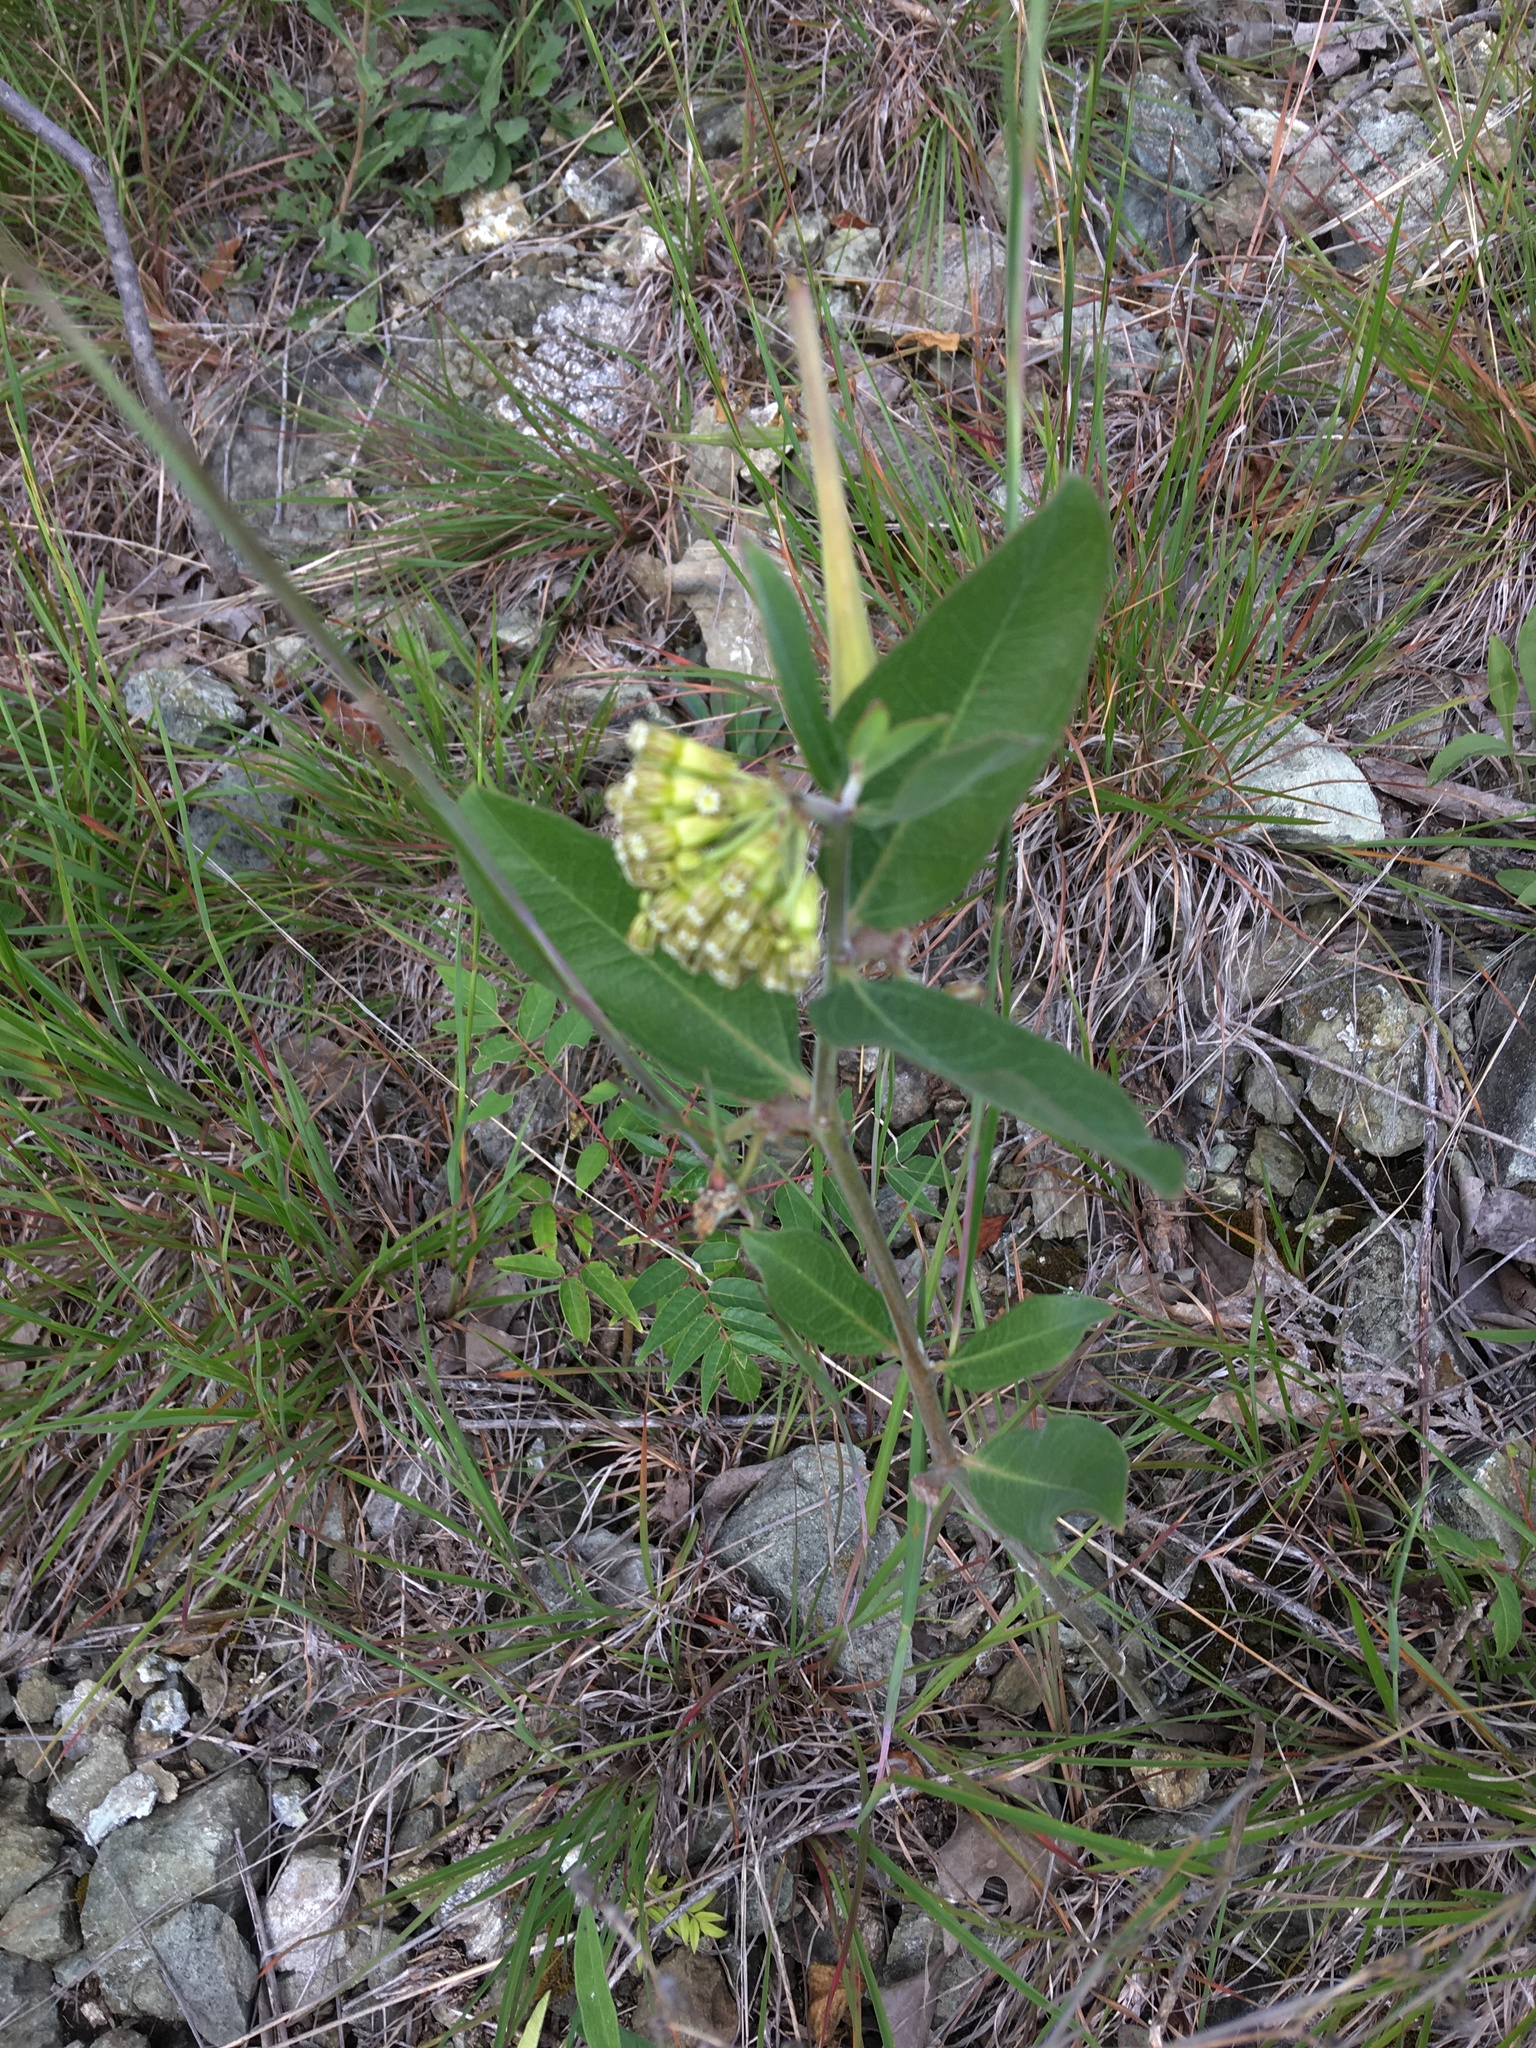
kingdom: Plantae
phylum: Tracheophyta
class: Magnoliopsida
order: Gentianales
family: Apocynaceae
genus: Asclepias
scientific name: Asclepias viridiflora
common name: Green comet milkweed
